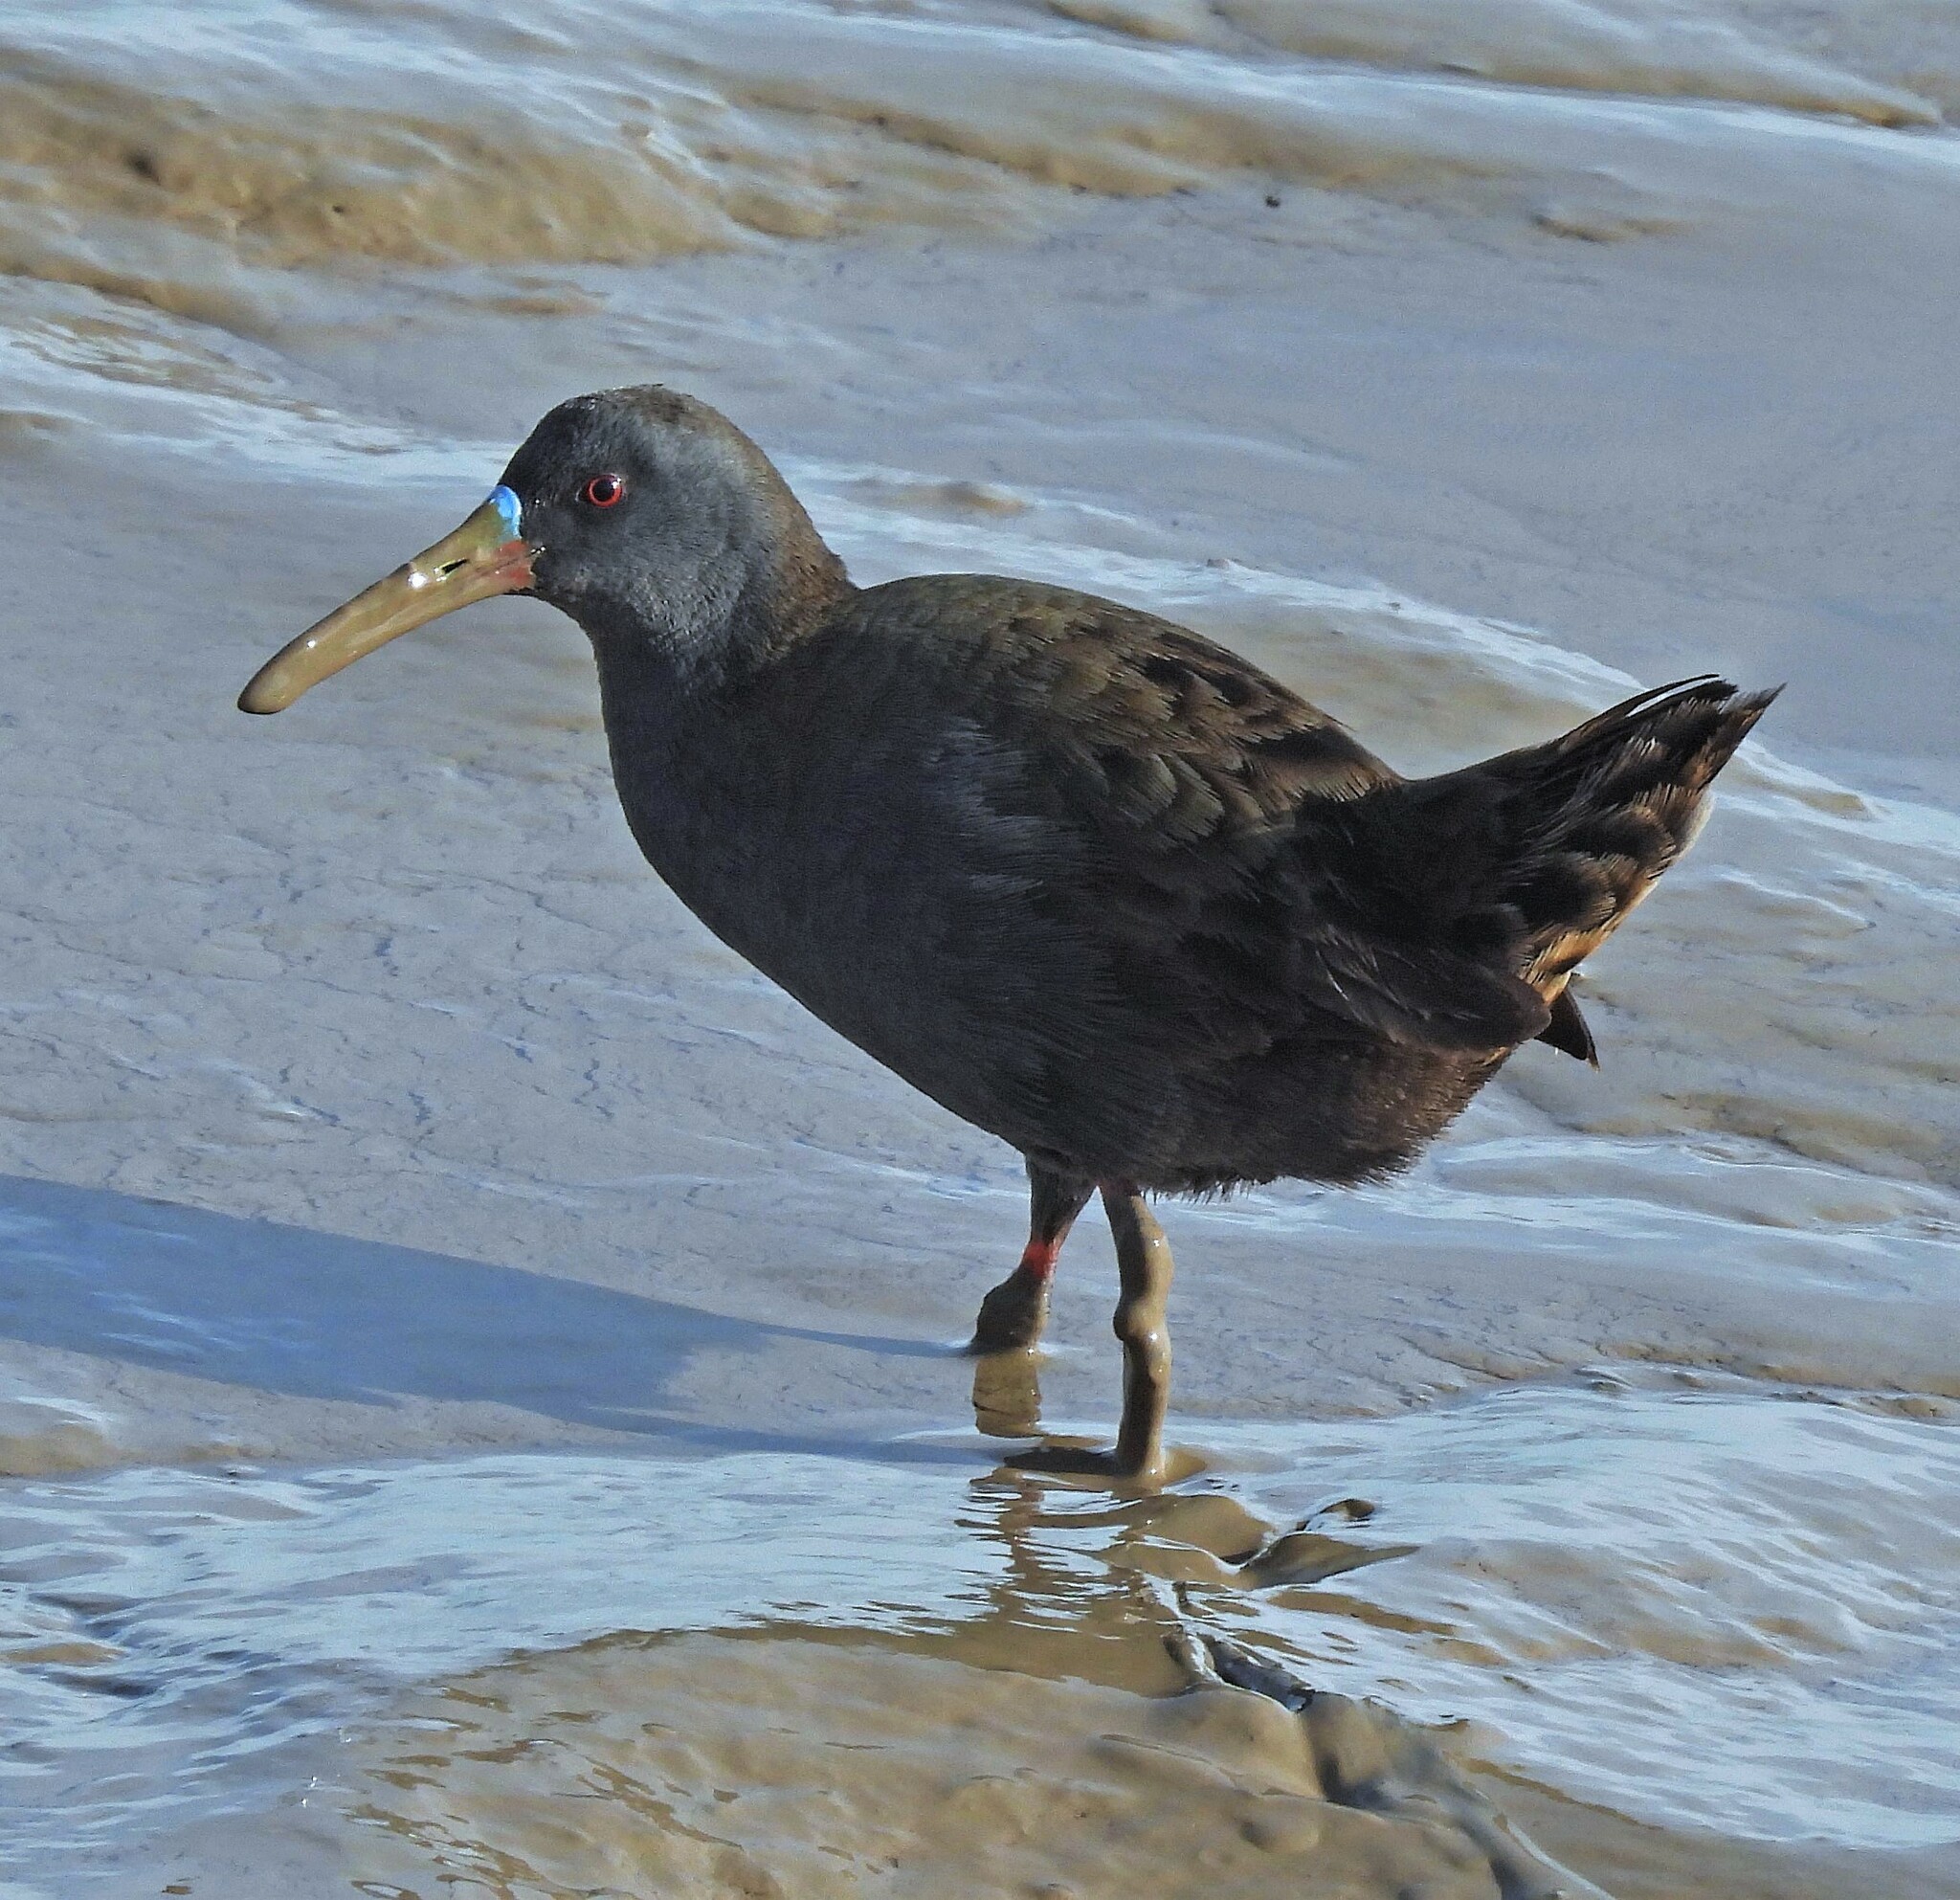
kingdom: Animalia
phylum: Chordata
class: Aves
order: Gruiformes
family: Rallidae
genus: Pardirallus
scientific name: Pardirallus sanguinolentus
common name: Plumbeous rail
